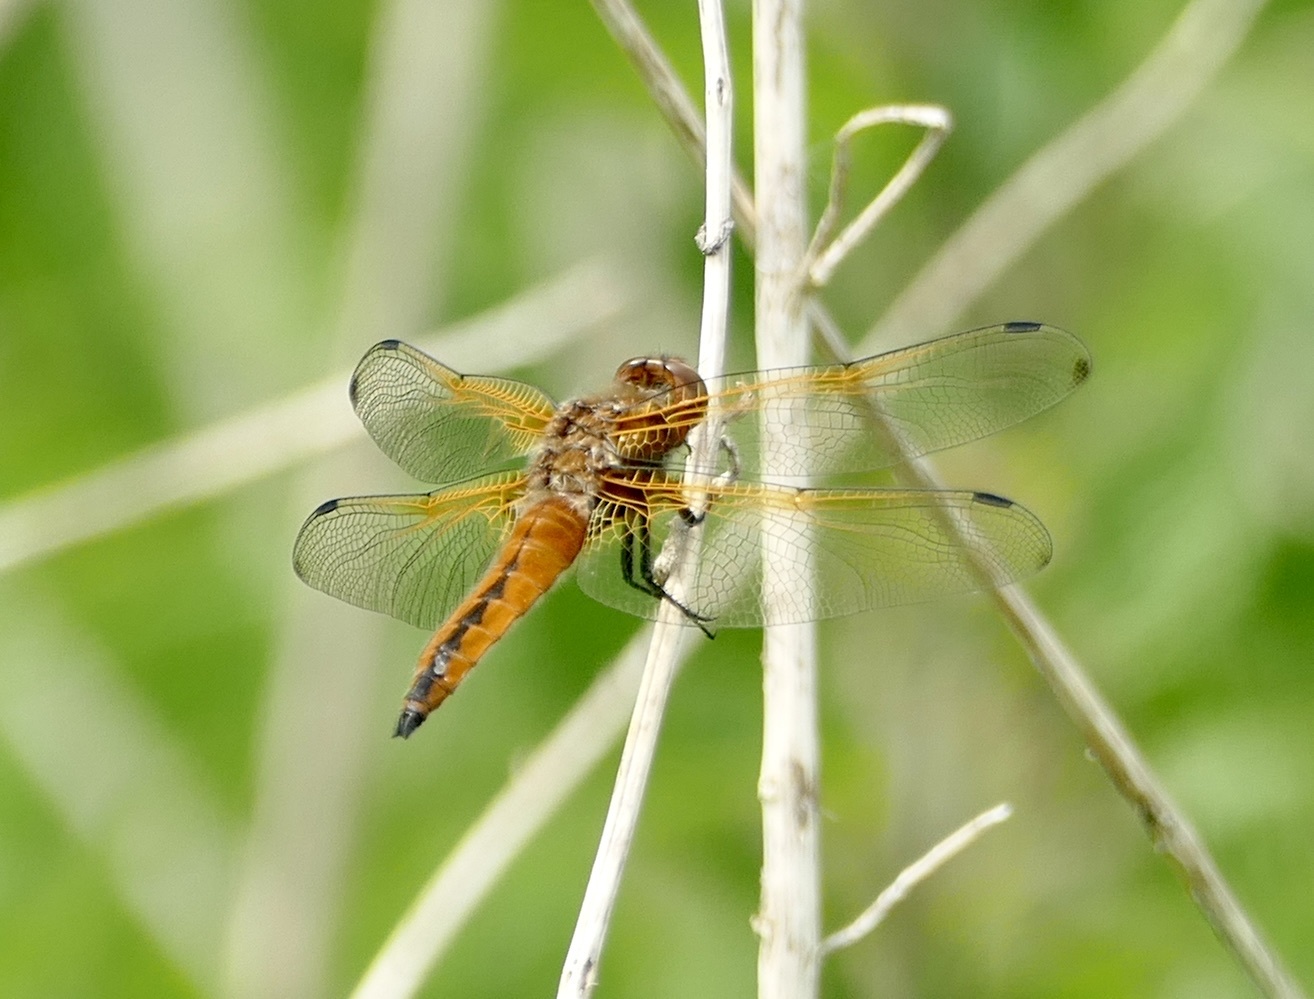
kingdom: Animalia
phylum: Arthropoda
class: Insecta
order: Odonata
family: Libellulidae
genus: Libellula
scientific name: Libellula fulva
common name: Blue chaser
